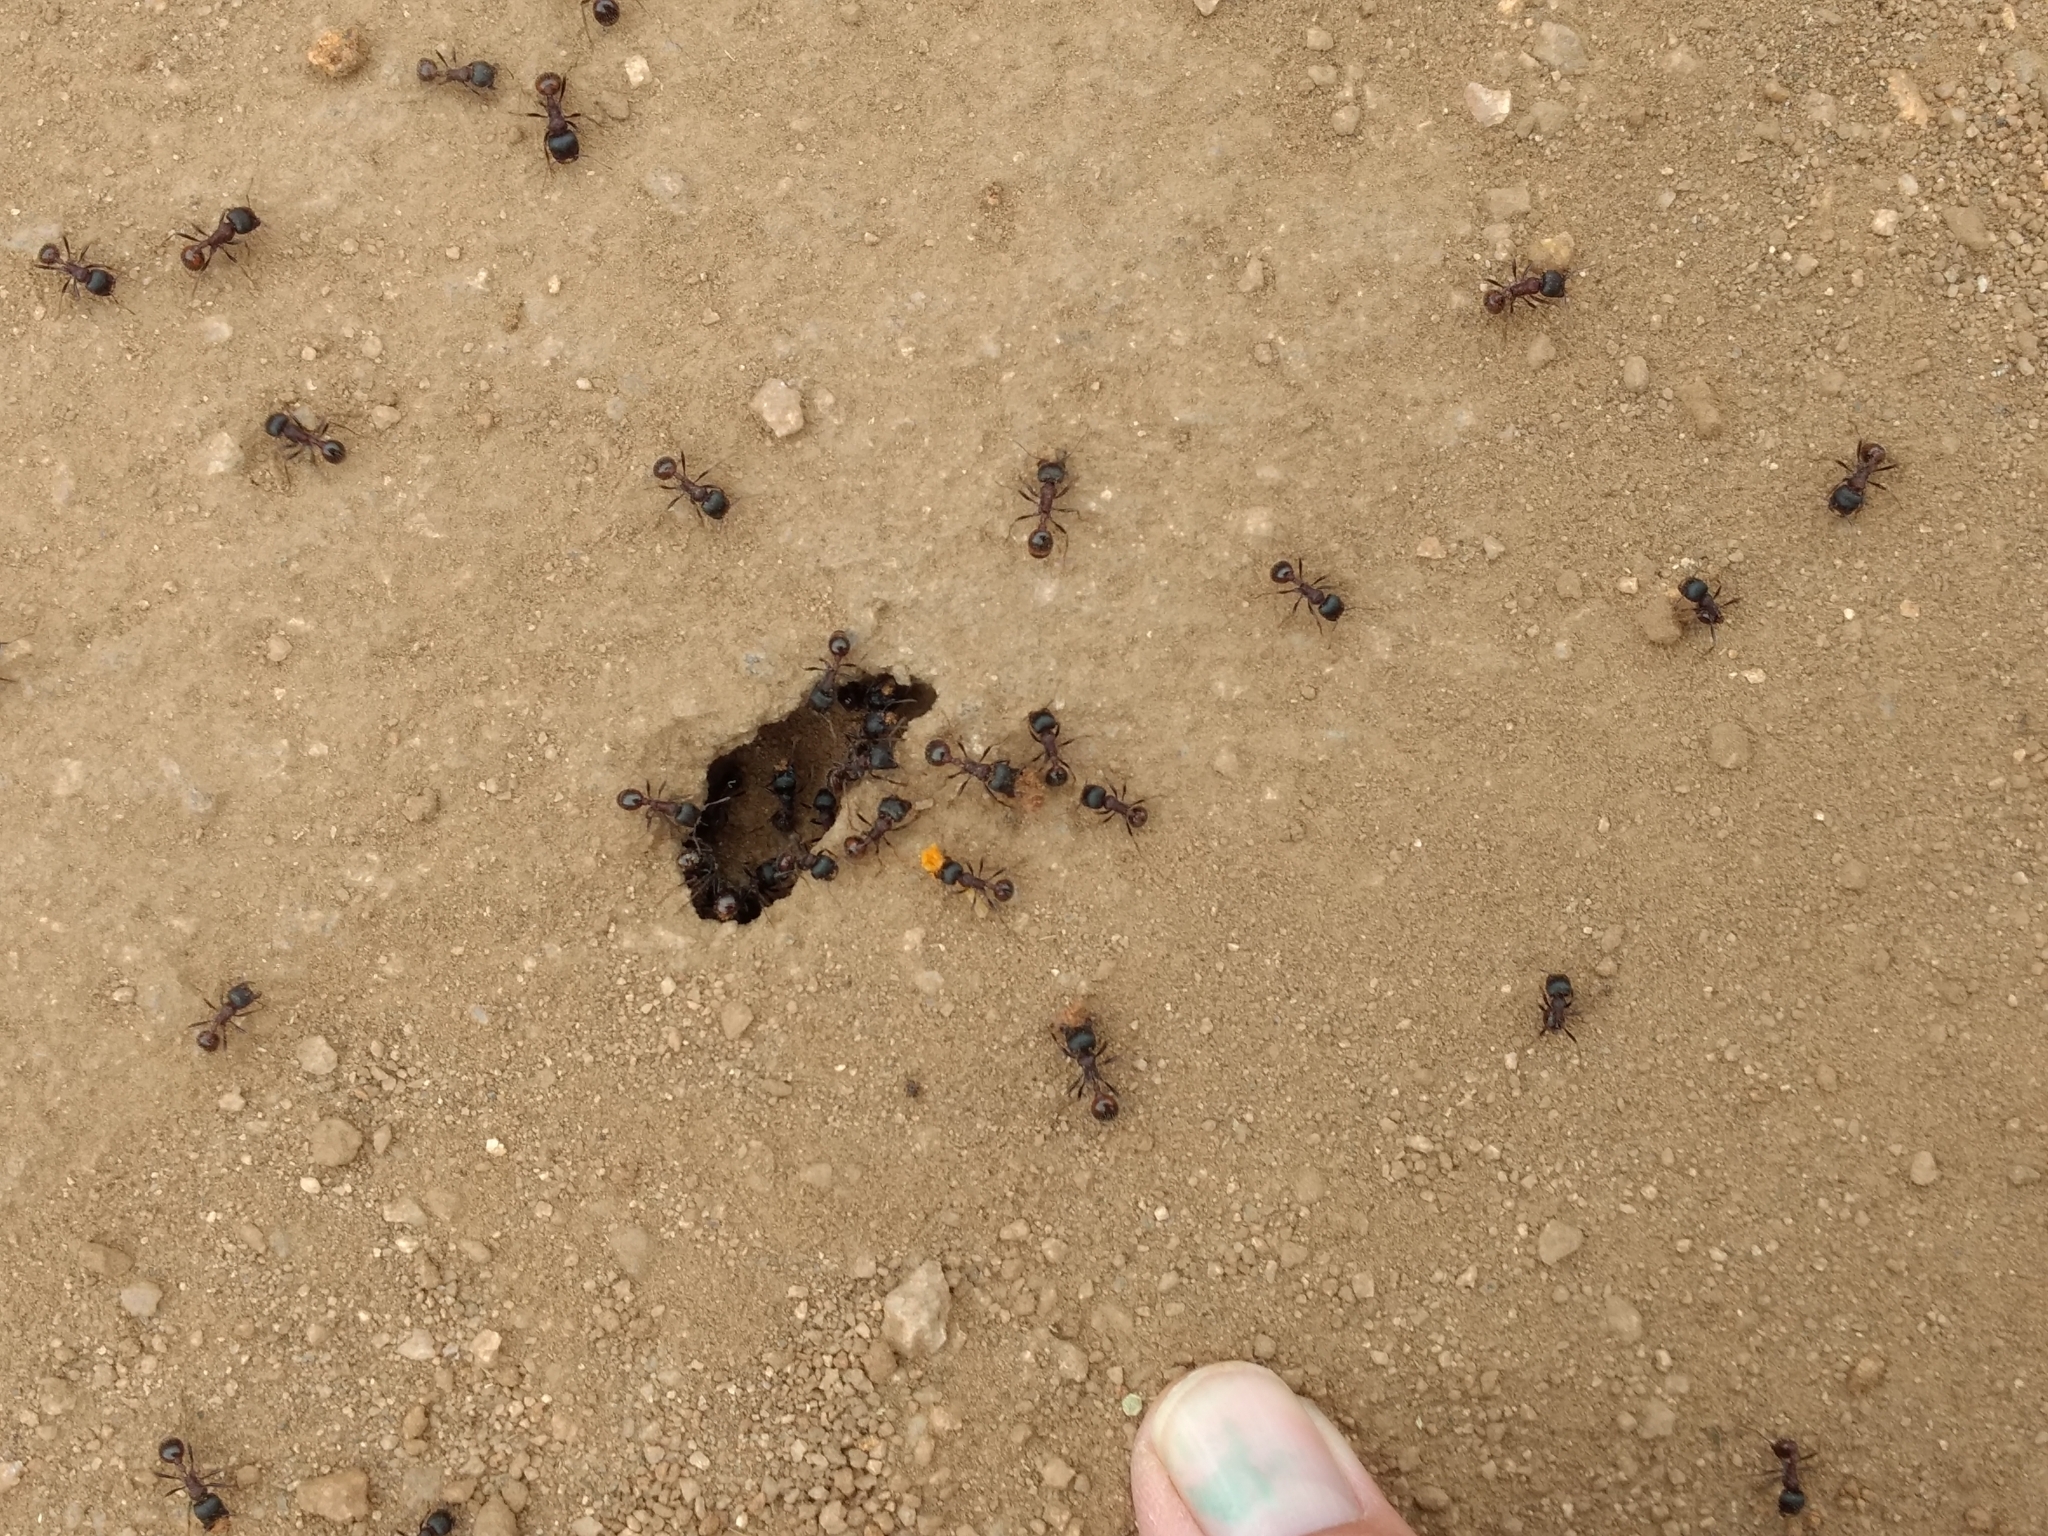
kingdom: Animalia
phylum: Arthropoda
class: Insecta
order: Hymenoptera
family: Formicidae
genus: Pogonomyrmex
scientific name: Pogonomyrmex rugosus
